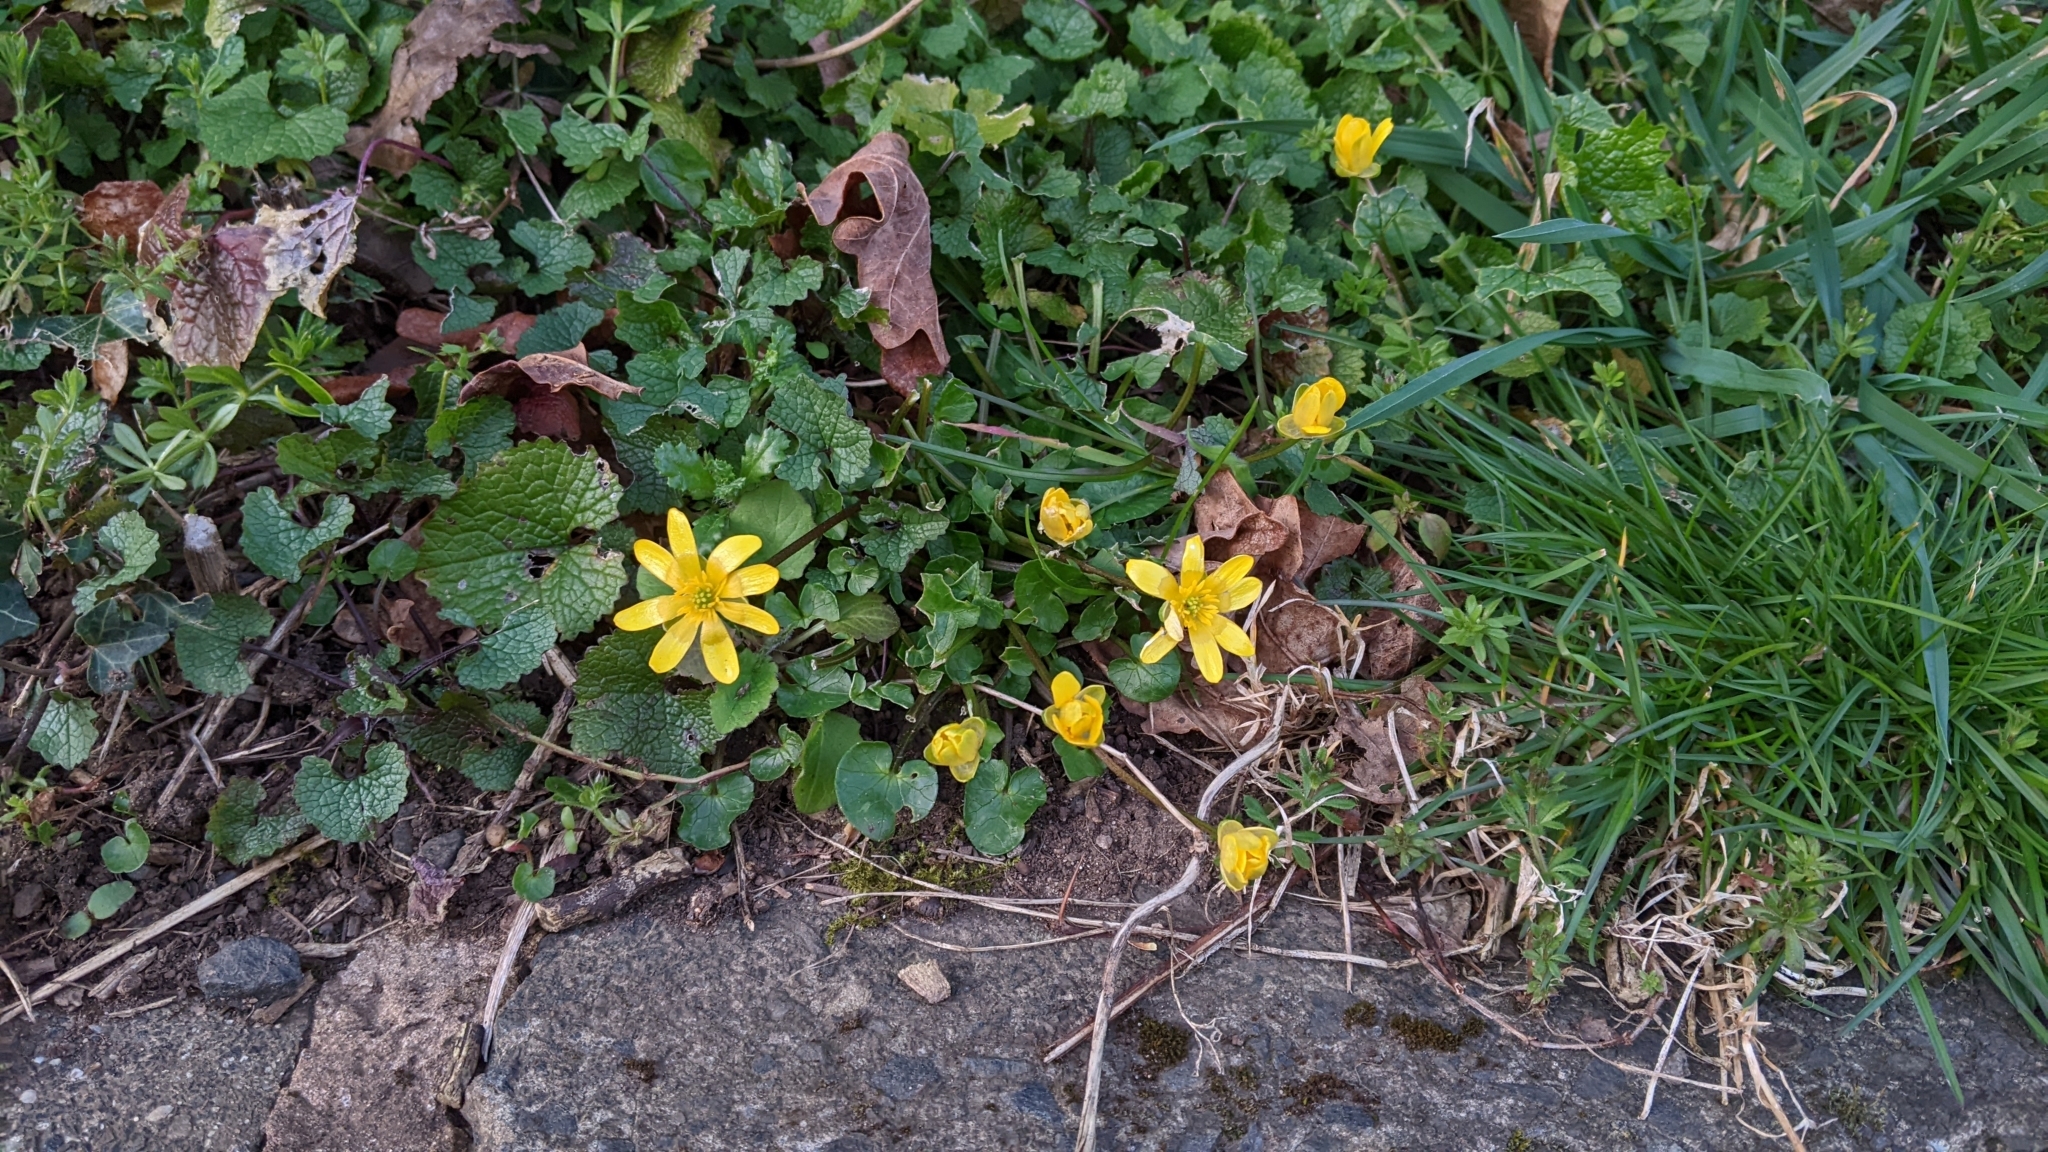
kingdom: Plantae
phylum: Tracheophyta
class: Magnoliopsida
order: Ranunculales
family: Ranunculaceae
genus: Ficaria
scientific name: Ficaria verna
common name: Lesser celandine
